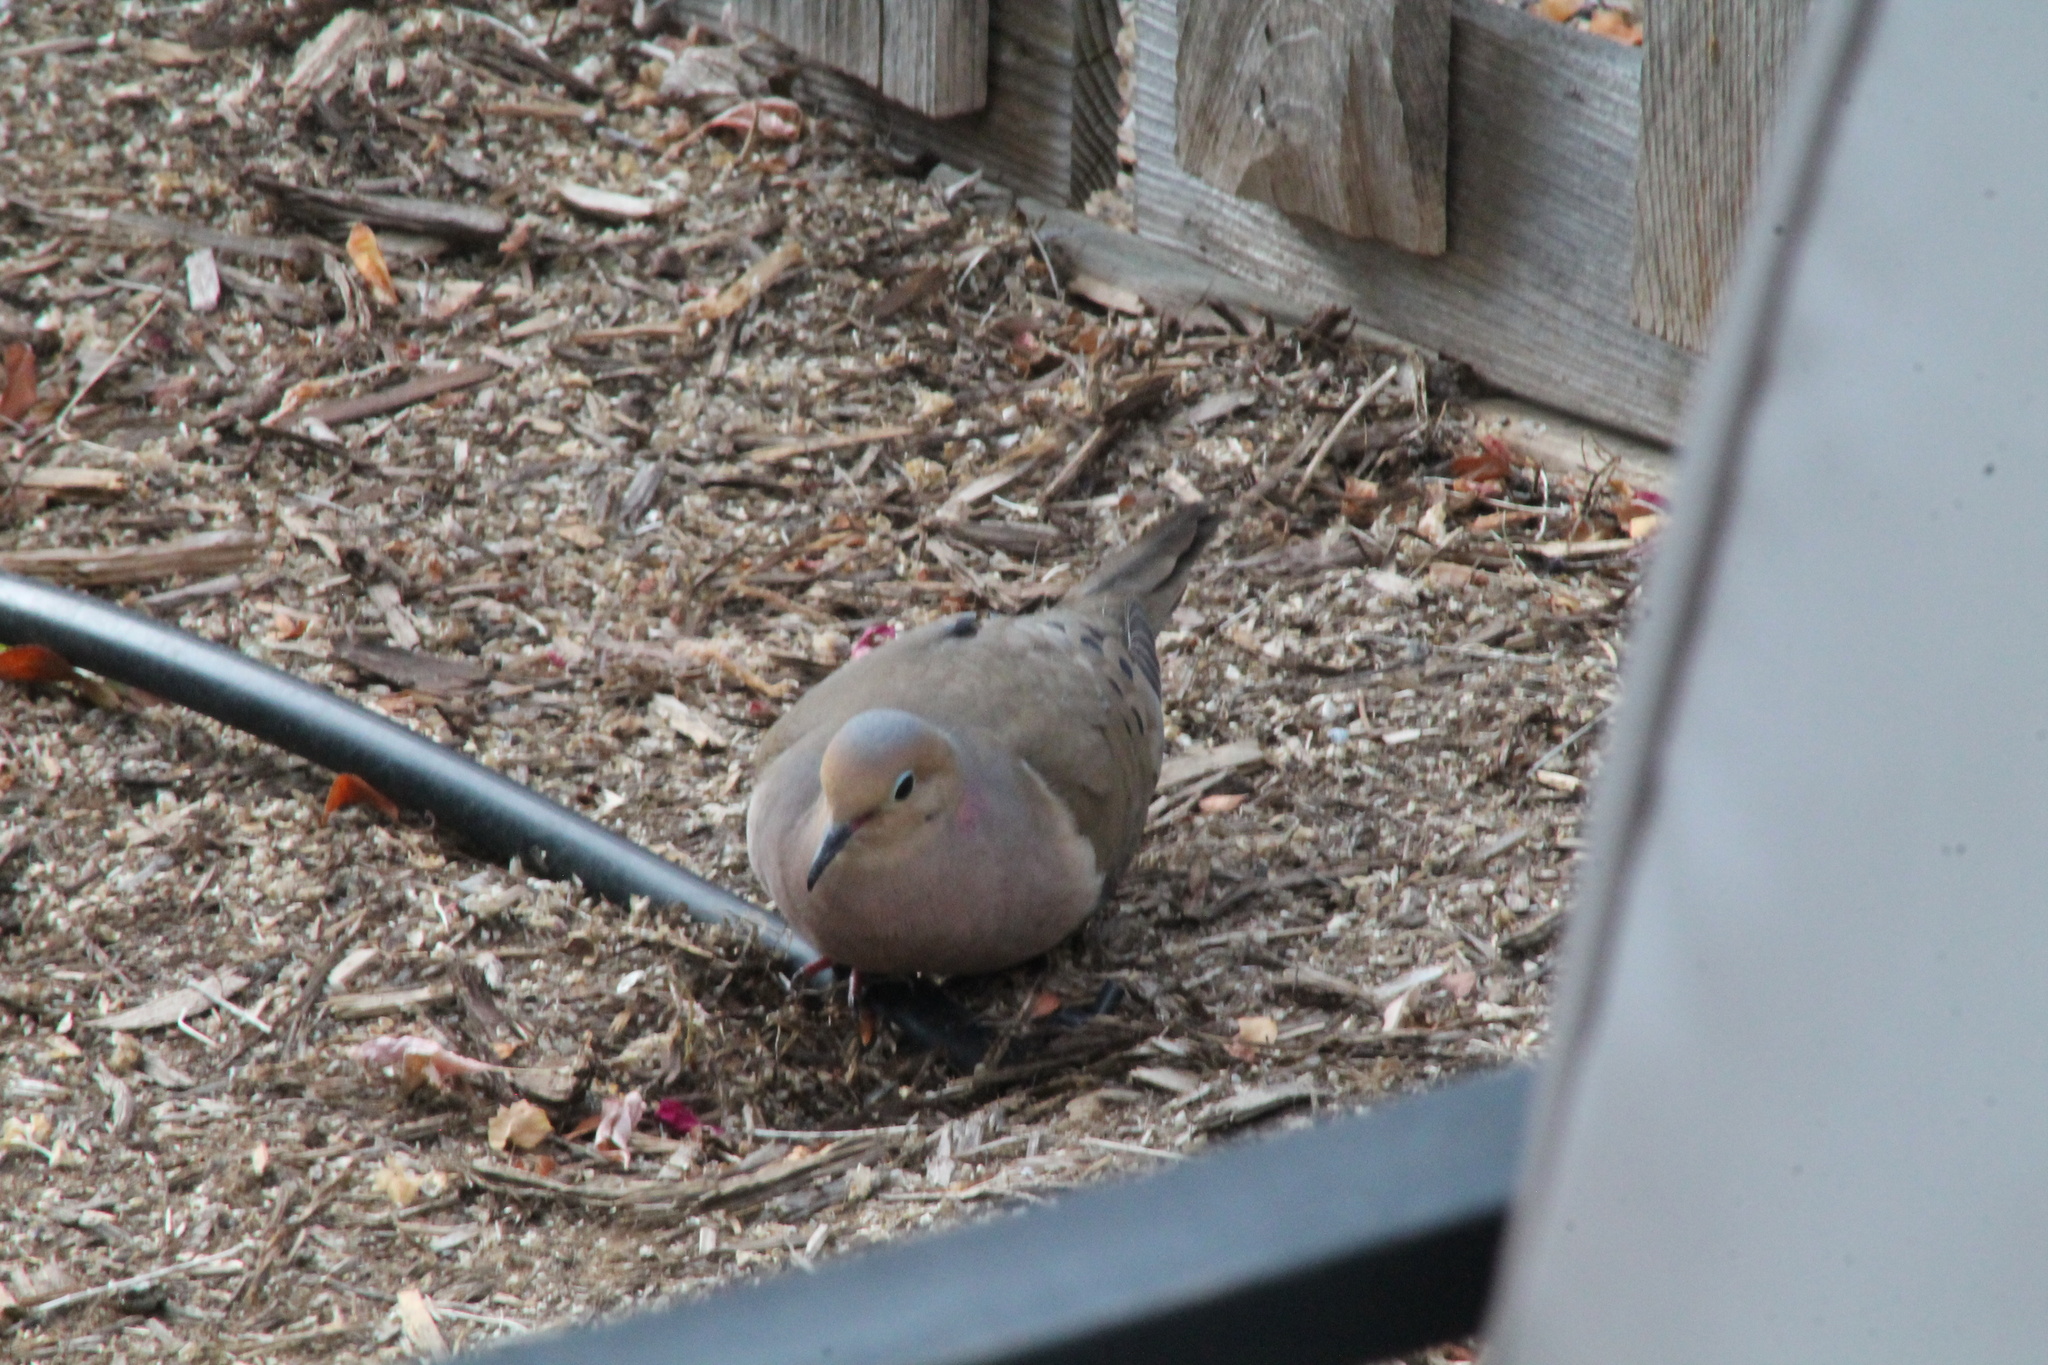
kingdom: Animalia
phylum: Chordata
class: Aves
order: Columbiformes
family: Columbidae
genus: Zenaida
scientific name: Zenaida macroura
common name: Mourning dove
